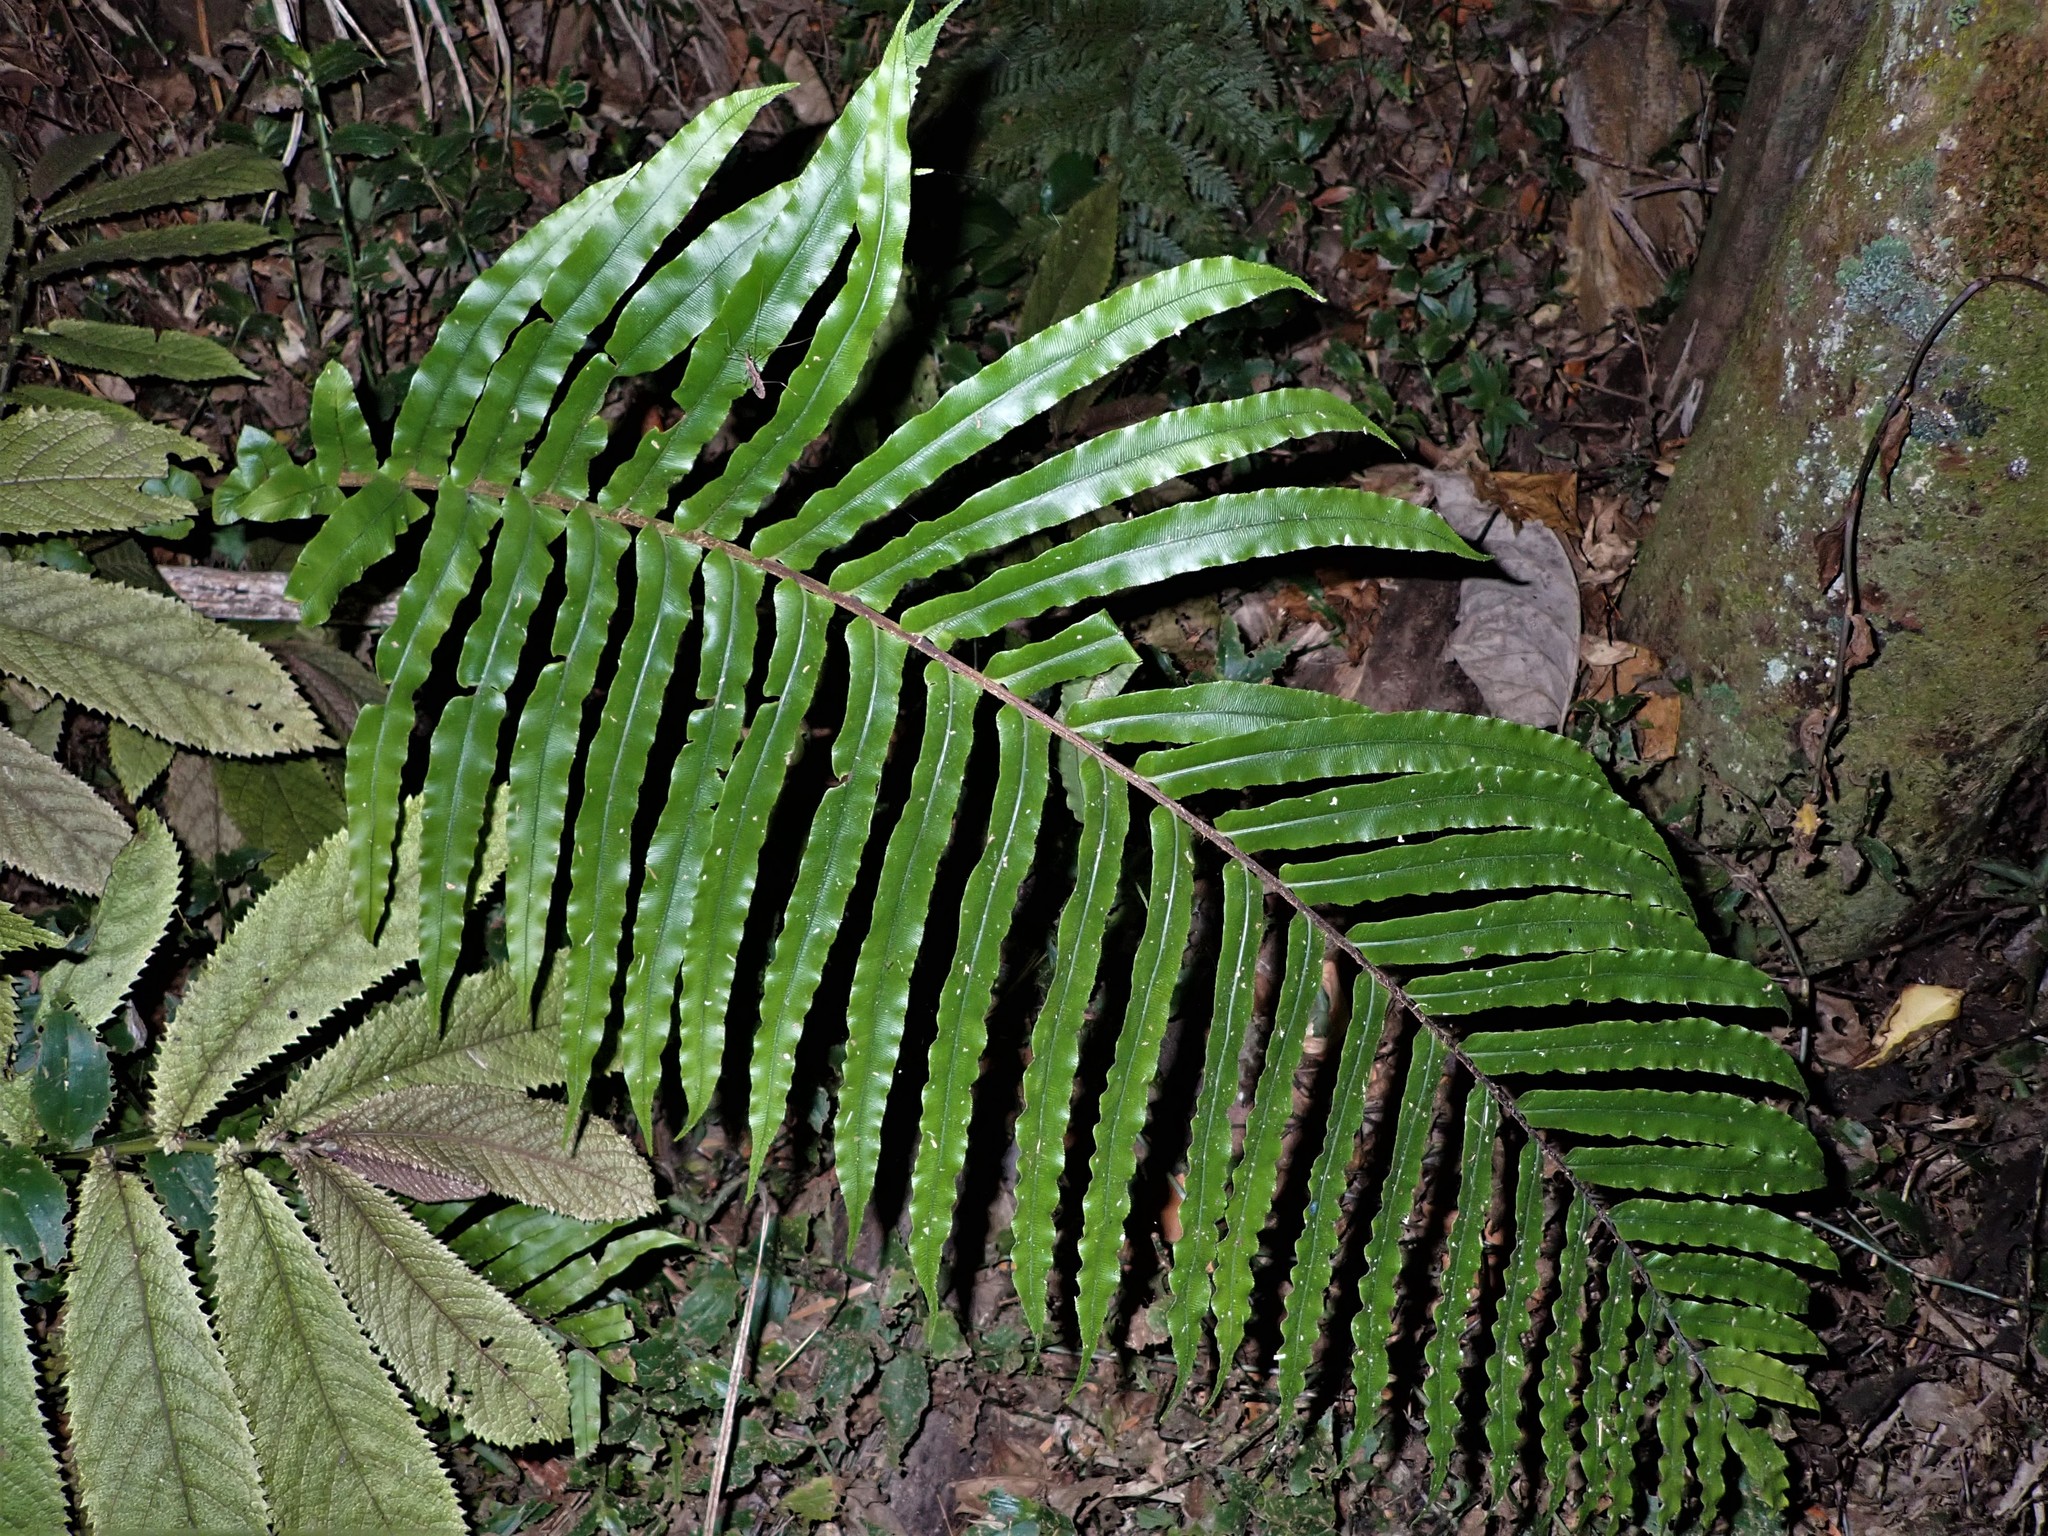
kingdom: Plantae
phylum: Tracheophyta
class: Polypodiopsida
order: Polypodiales
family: Blechnaceae
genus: Parablechnum
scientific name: Parablechnum novae-zelandiae
